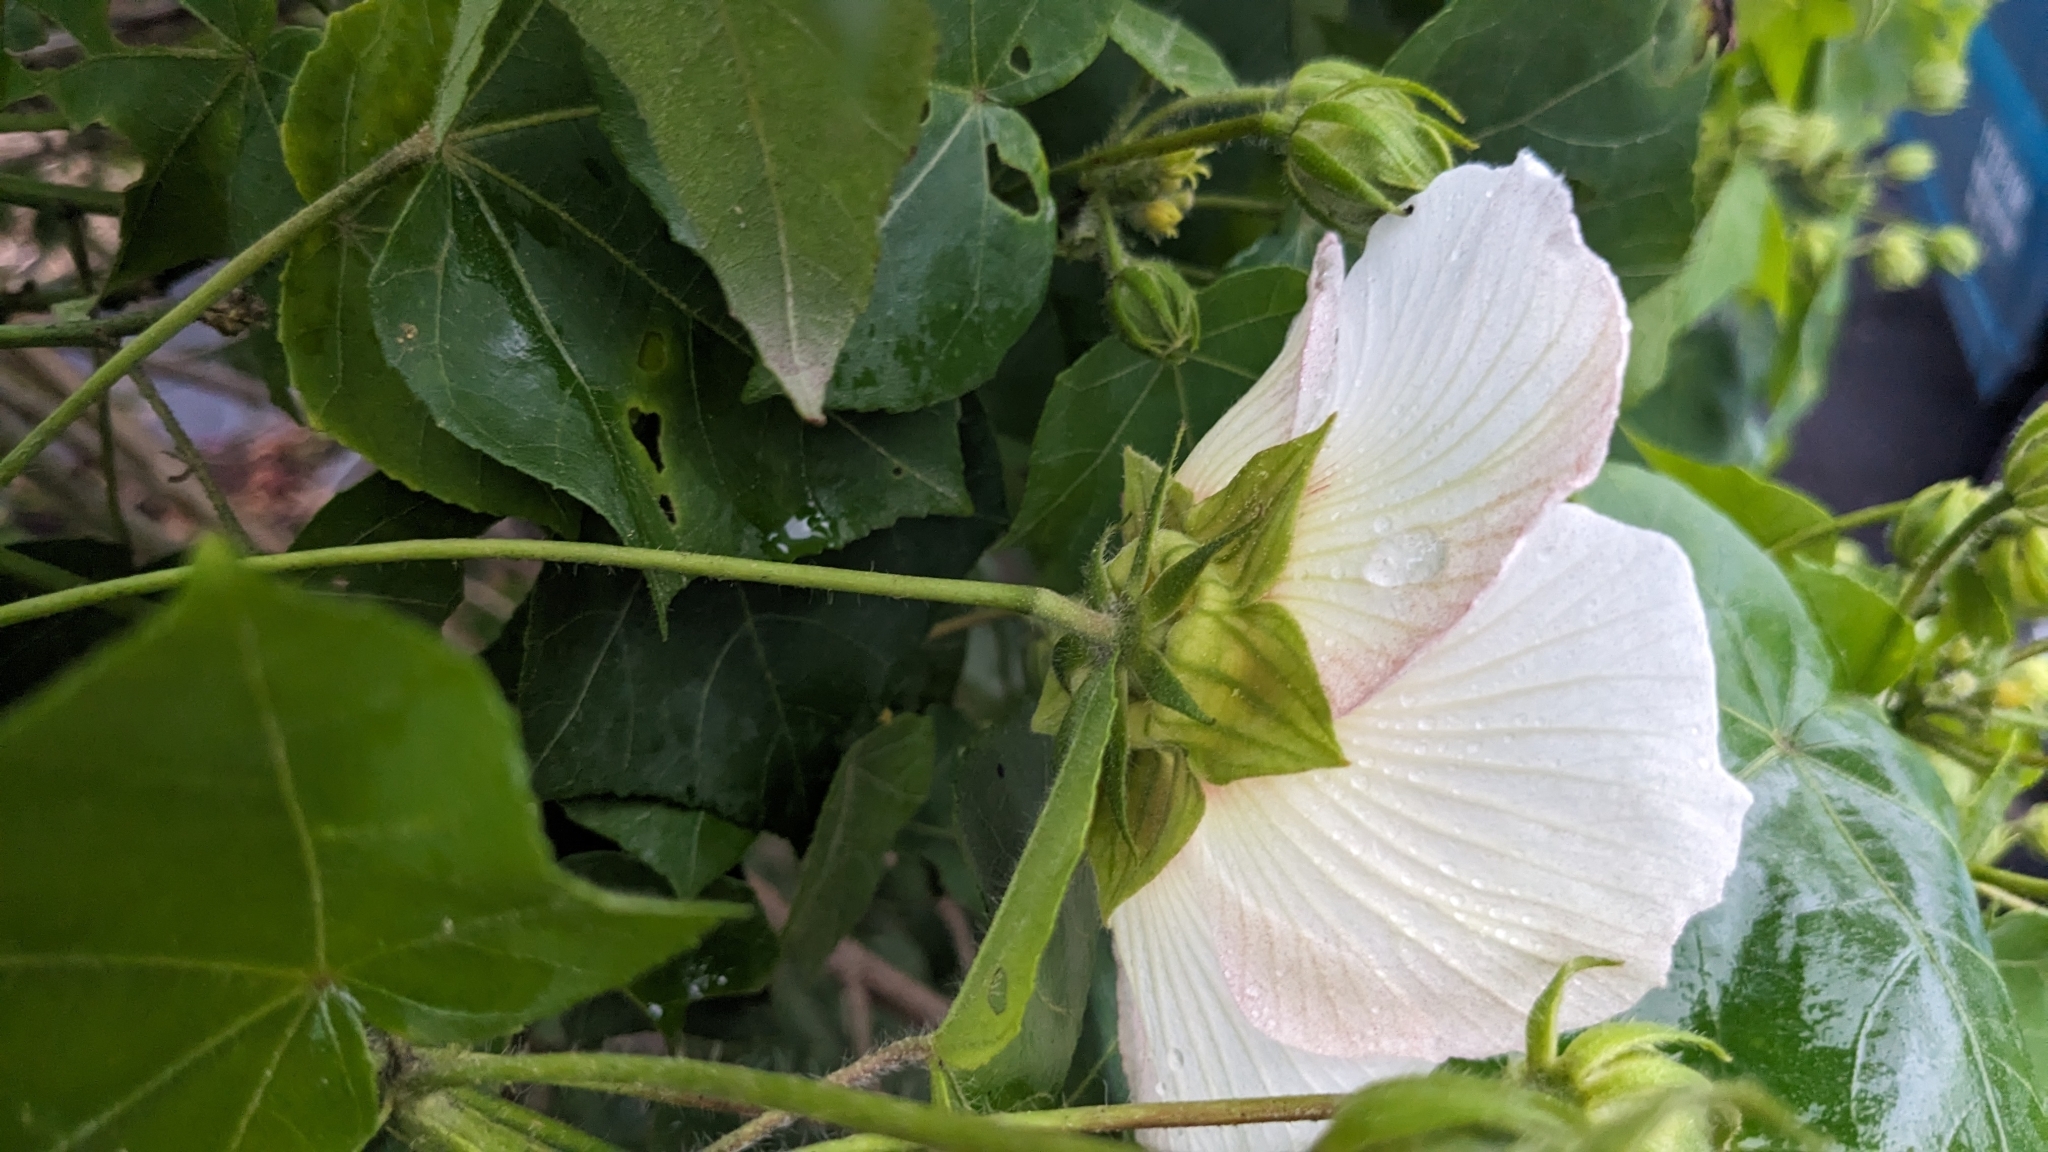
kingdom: Plantae
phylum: Tracheophyta
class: Magnoliopsida
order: Malvales
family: Malvaceae
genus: Hibiscus
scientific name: Hibiscus taiwanensis
